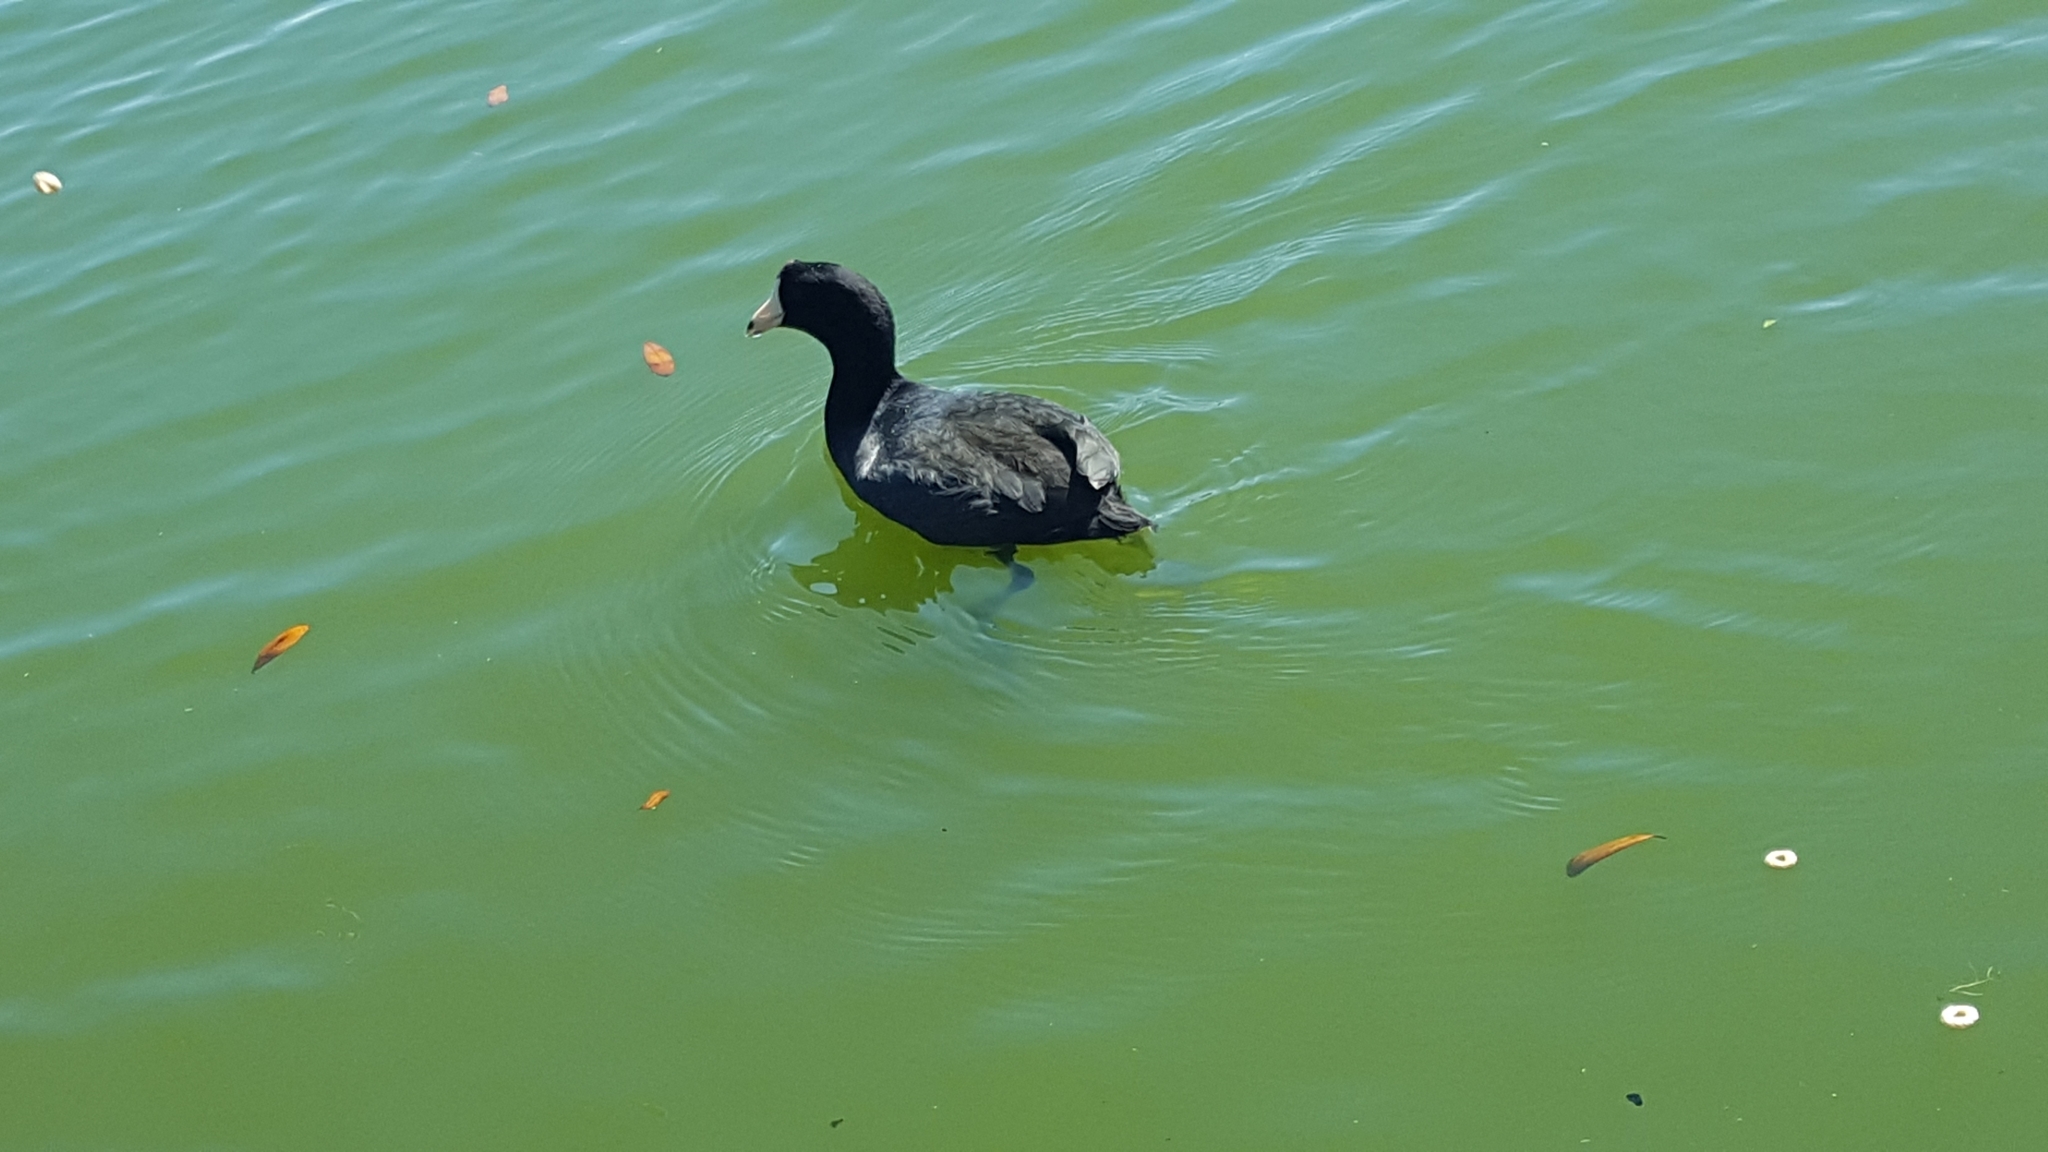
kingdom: Animalia
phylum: Chordata
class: Aves
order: Gruiformes
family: Rallidae
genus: Fulica
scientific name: Fulica americana
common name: American coot
